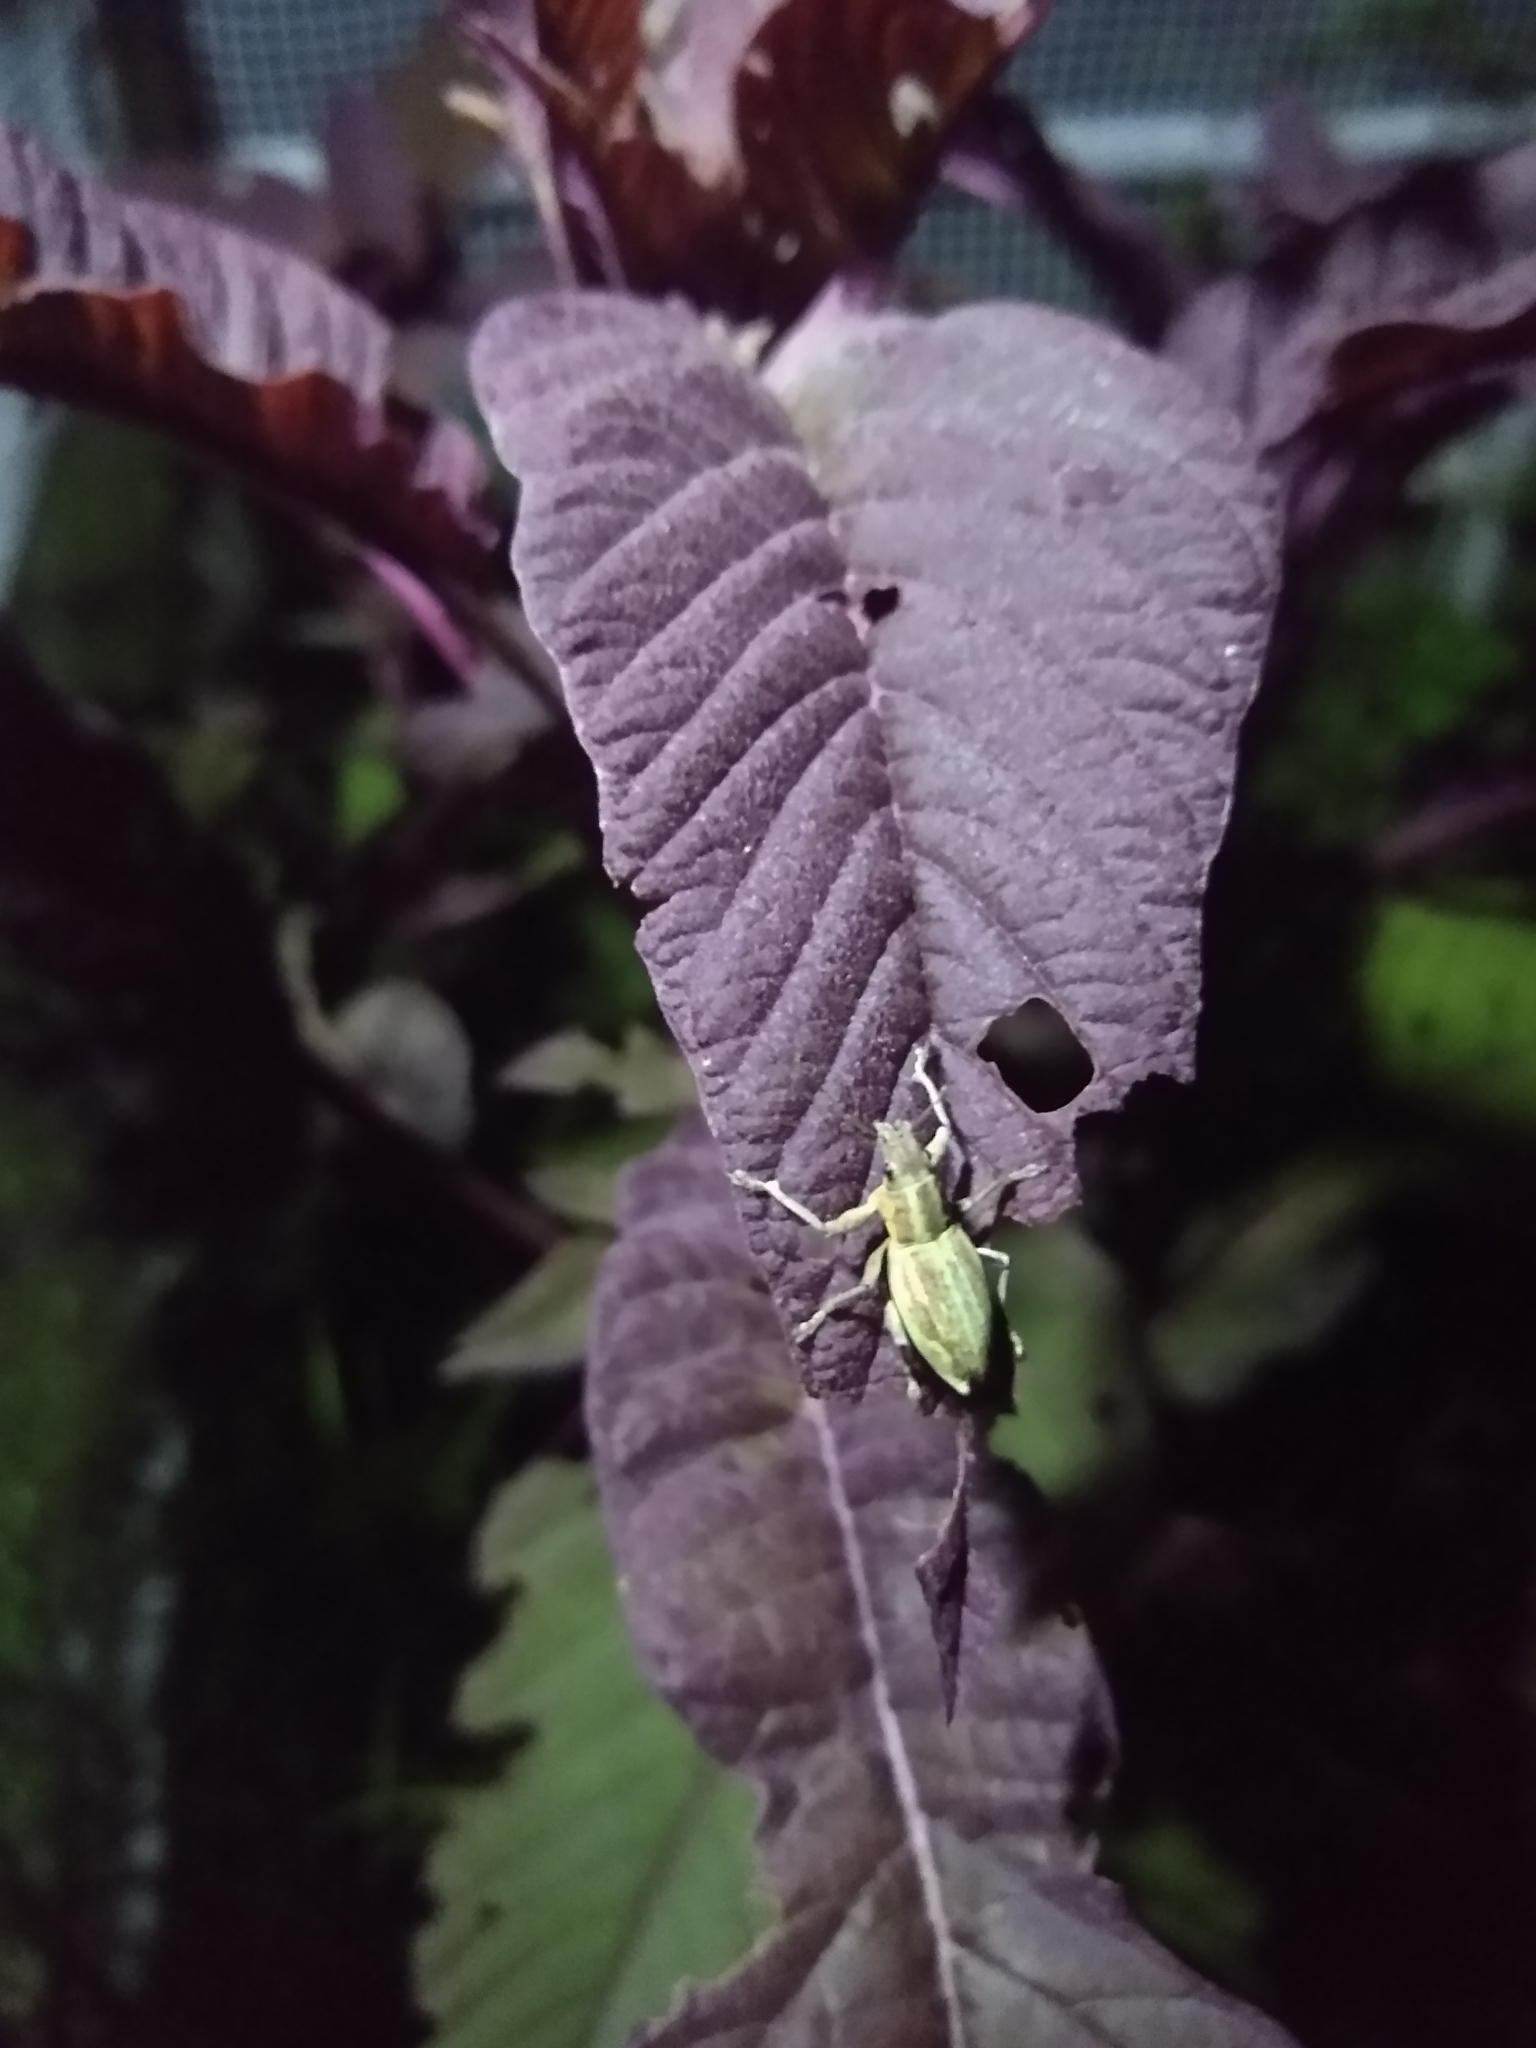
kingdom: Animalia
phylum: Arthropoda
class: Insecta
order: Coleoptera
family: Curculionidae
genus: Naupactus
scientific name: Naupactus xanthographus
